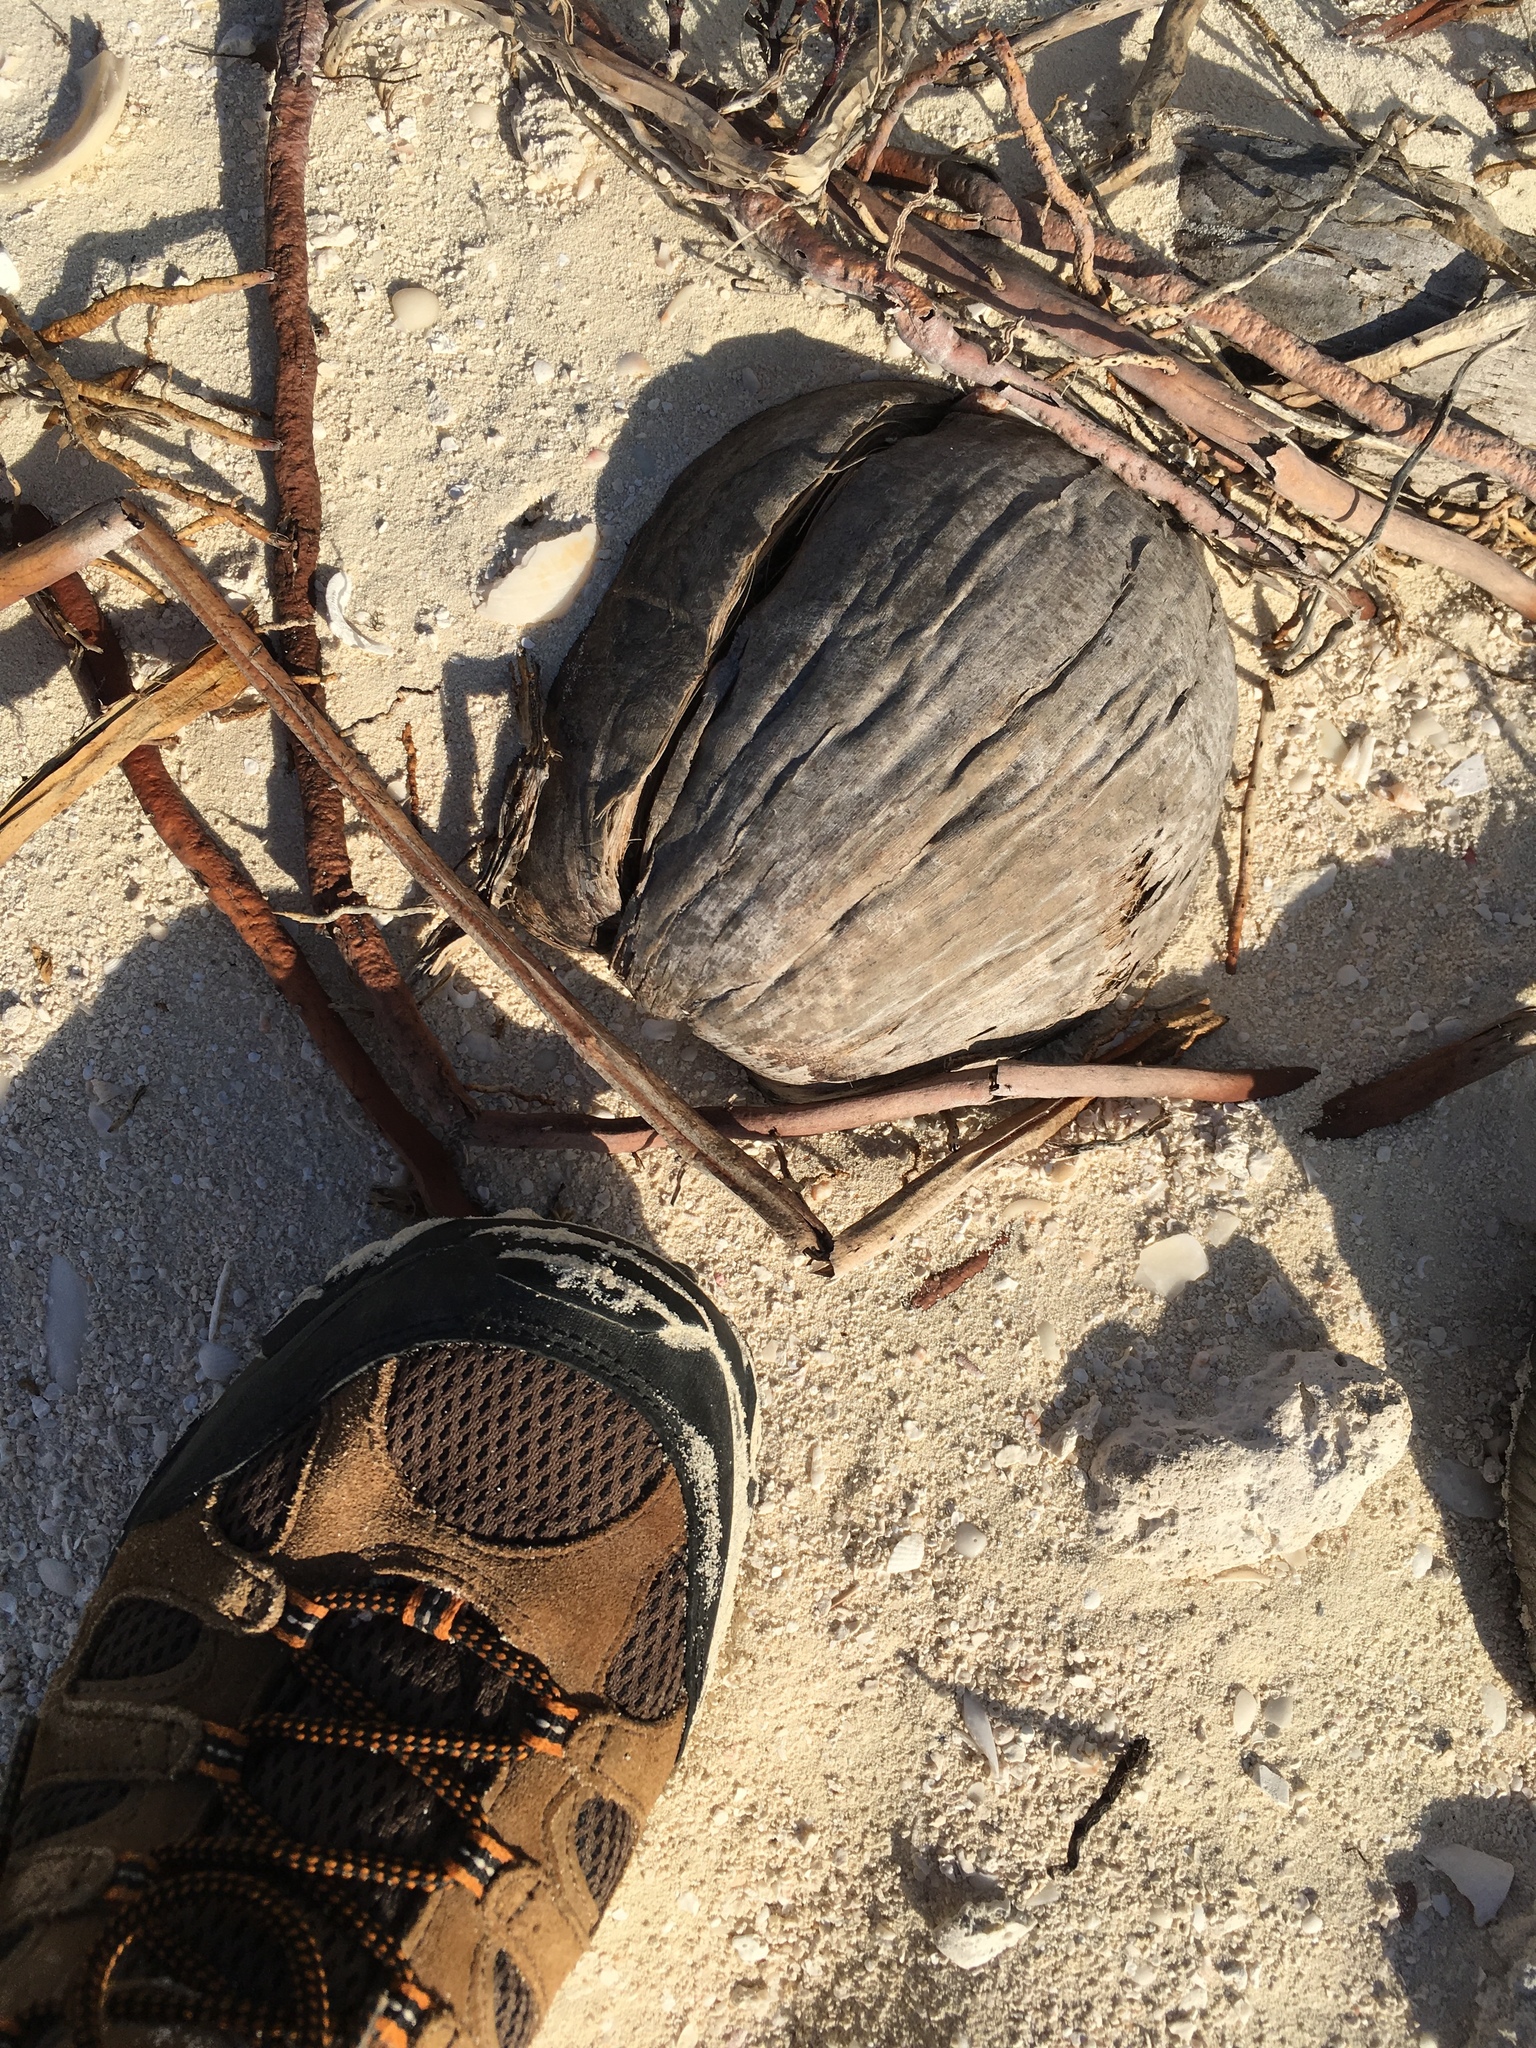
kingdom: Plantae
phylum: Tracheophyta
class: Liliopsida
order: Arecales
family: Arecaceae
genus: Cocos
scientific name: Cocos nucifera
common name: Coconut palm
